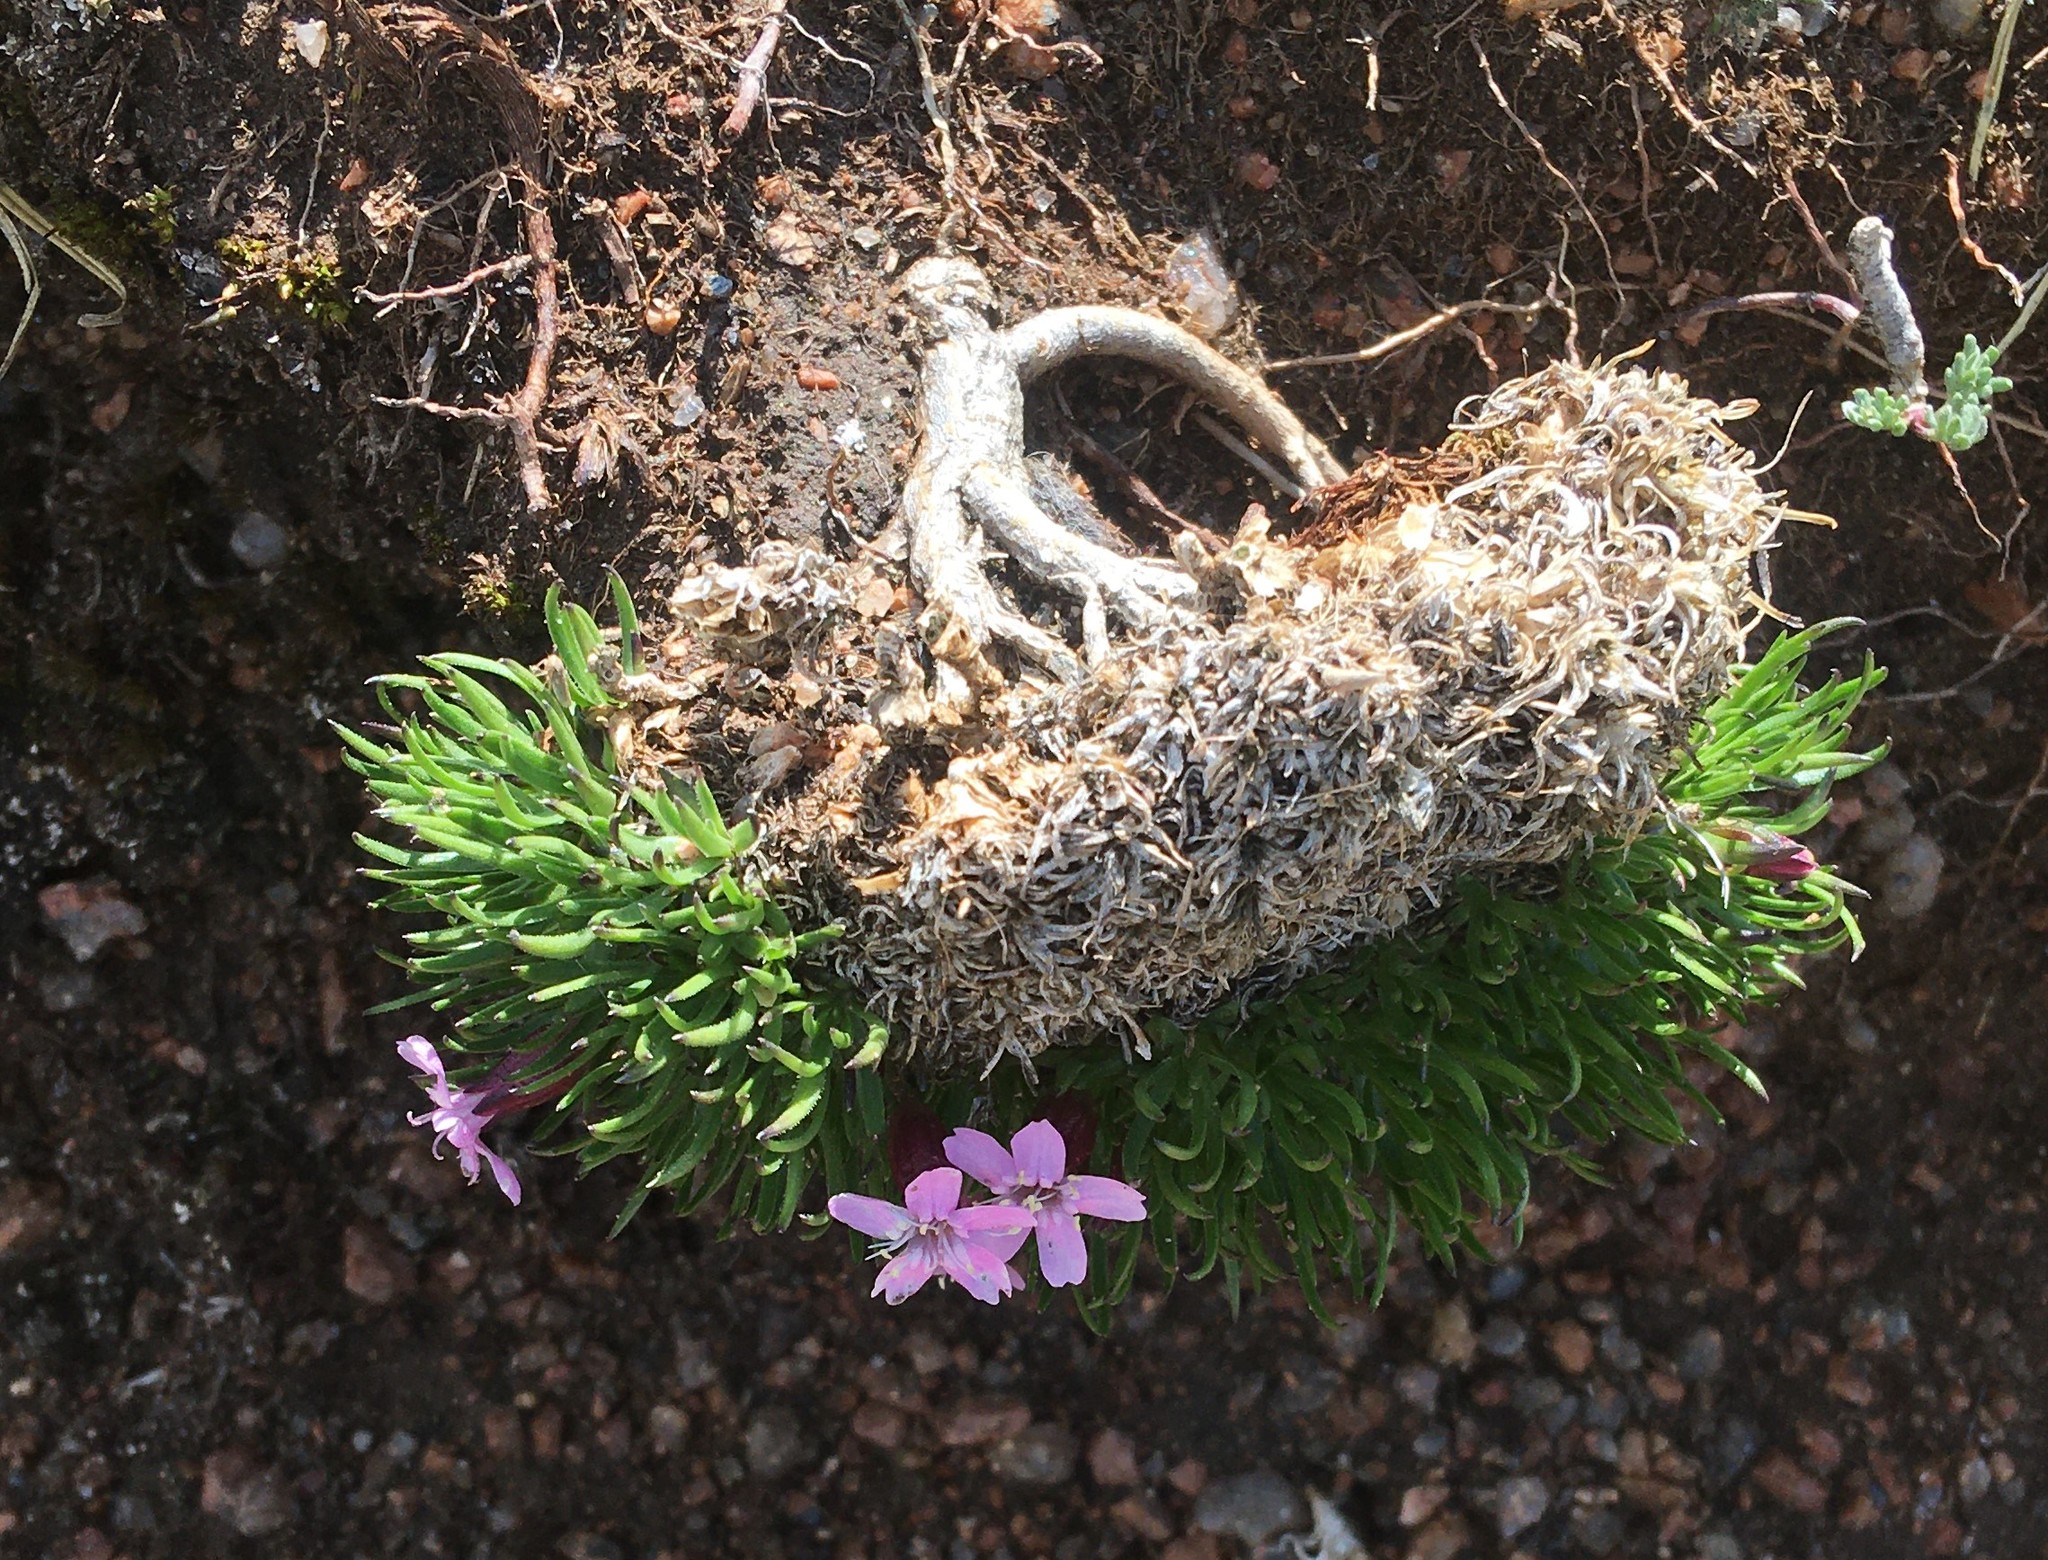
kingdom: Plantae
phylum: Tracheophyta
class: Magnoliopsida
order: Caryophyllales
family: Caryophyllaceae
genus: Silene
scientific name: Silene acaulis
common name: Moss campion
